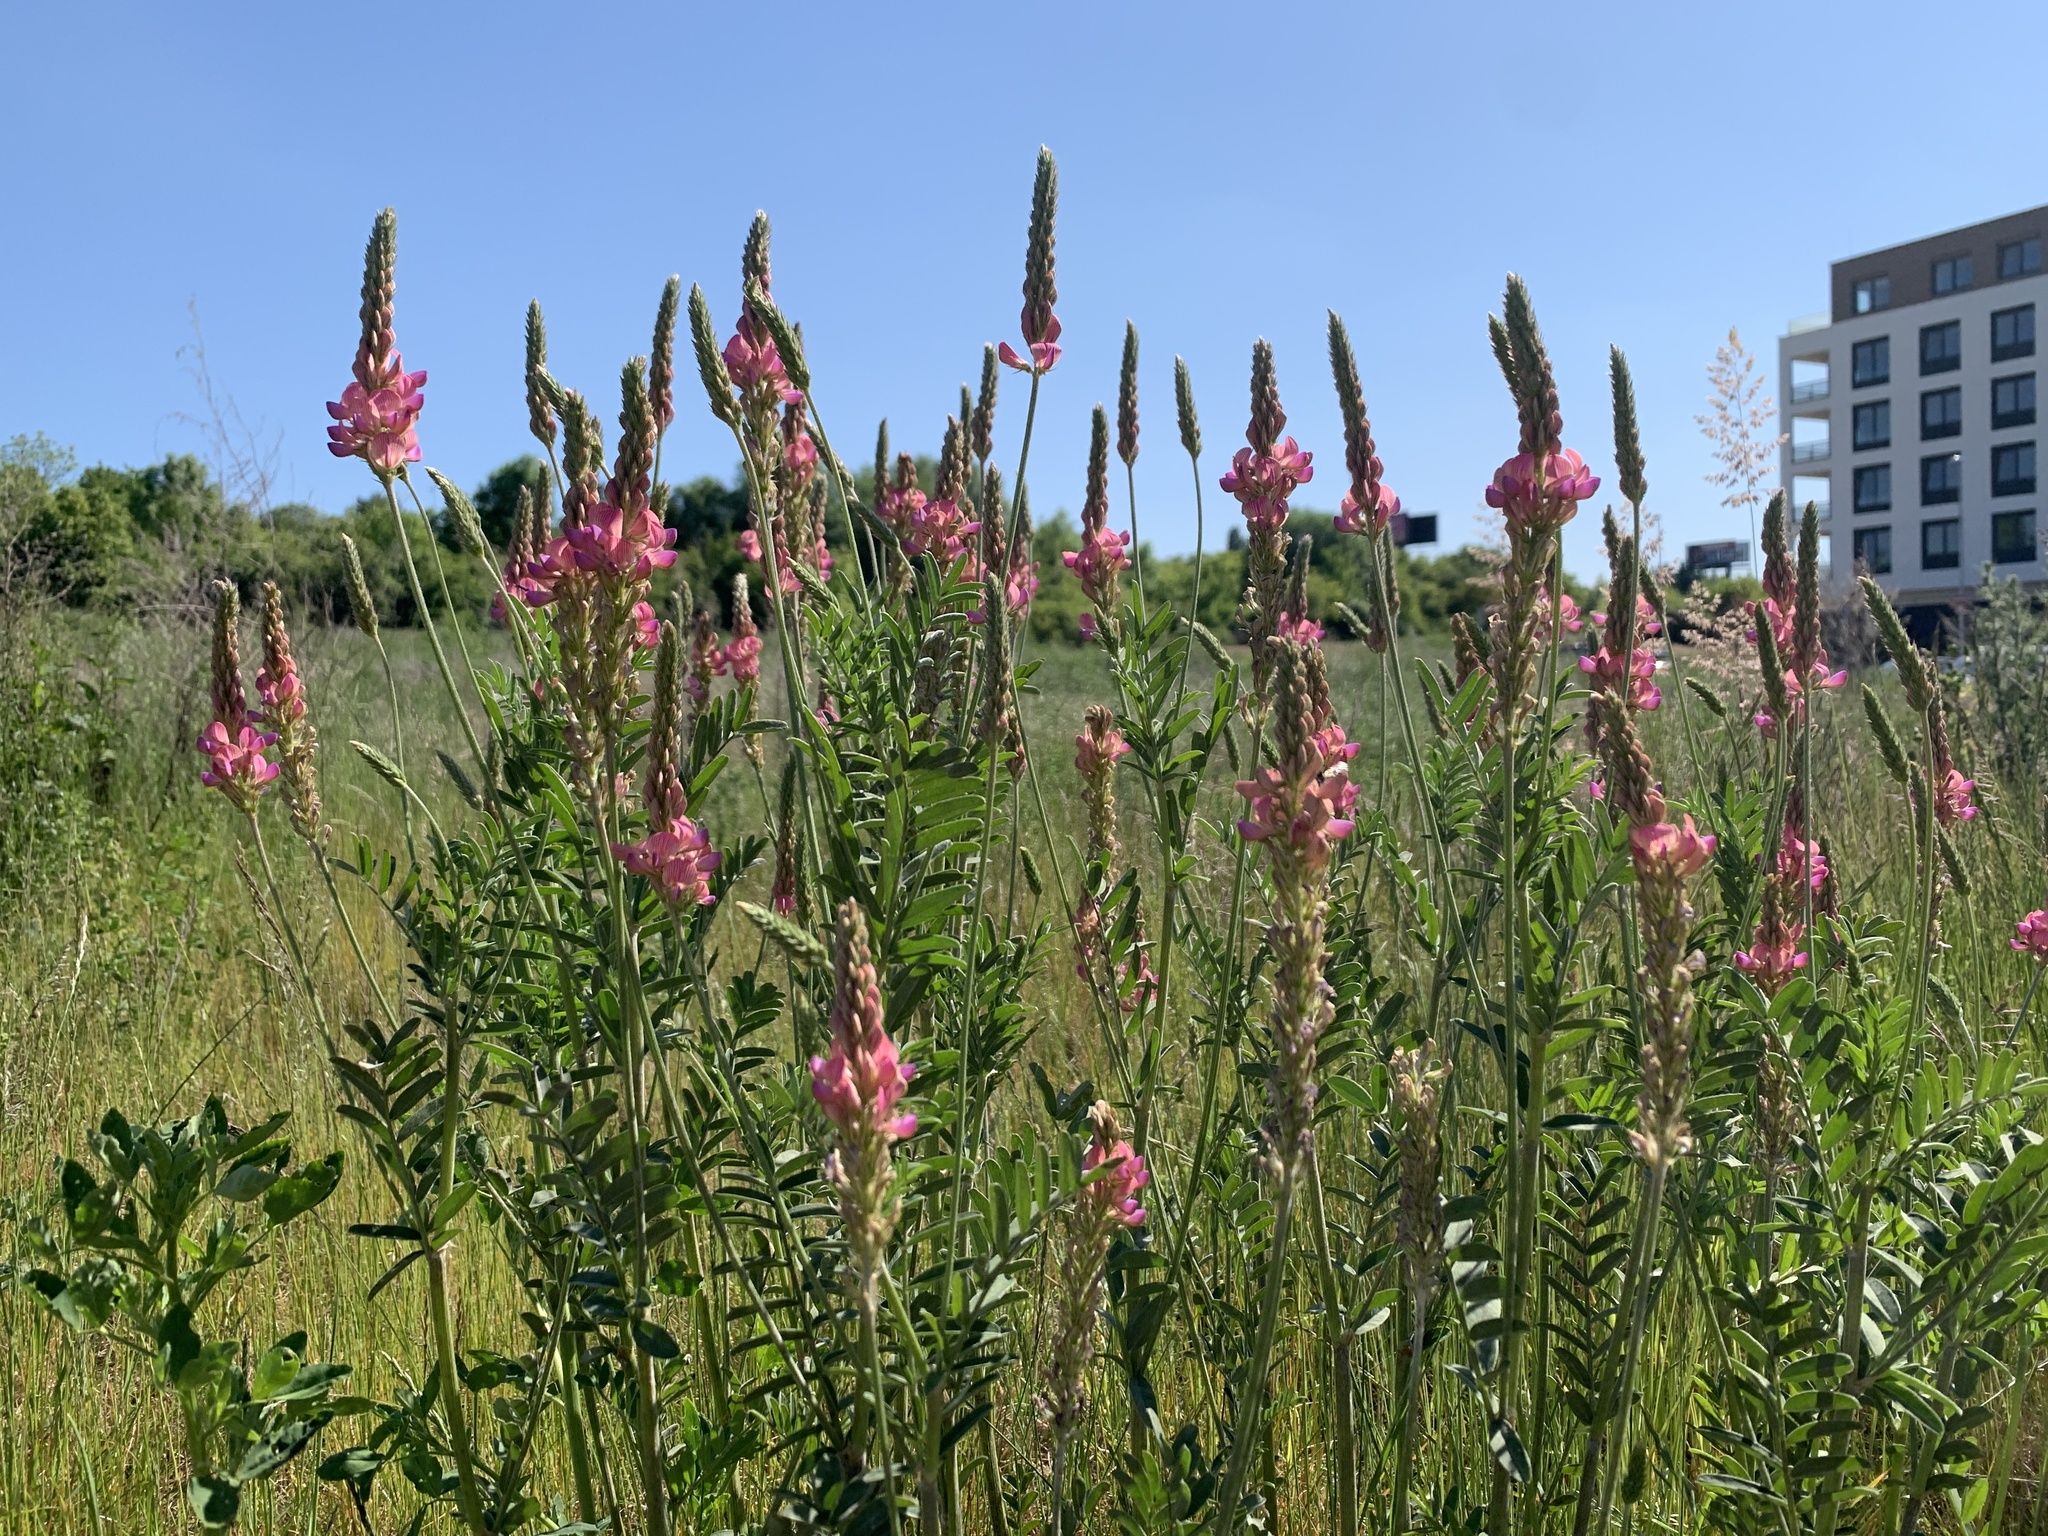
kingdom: Plantae
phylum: Tracheophyta
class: Magnoliopsida
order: Fabales
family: Fabaceae
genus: Onobrychis
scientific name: Onobrychis viciifolia
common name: Sainfoin
